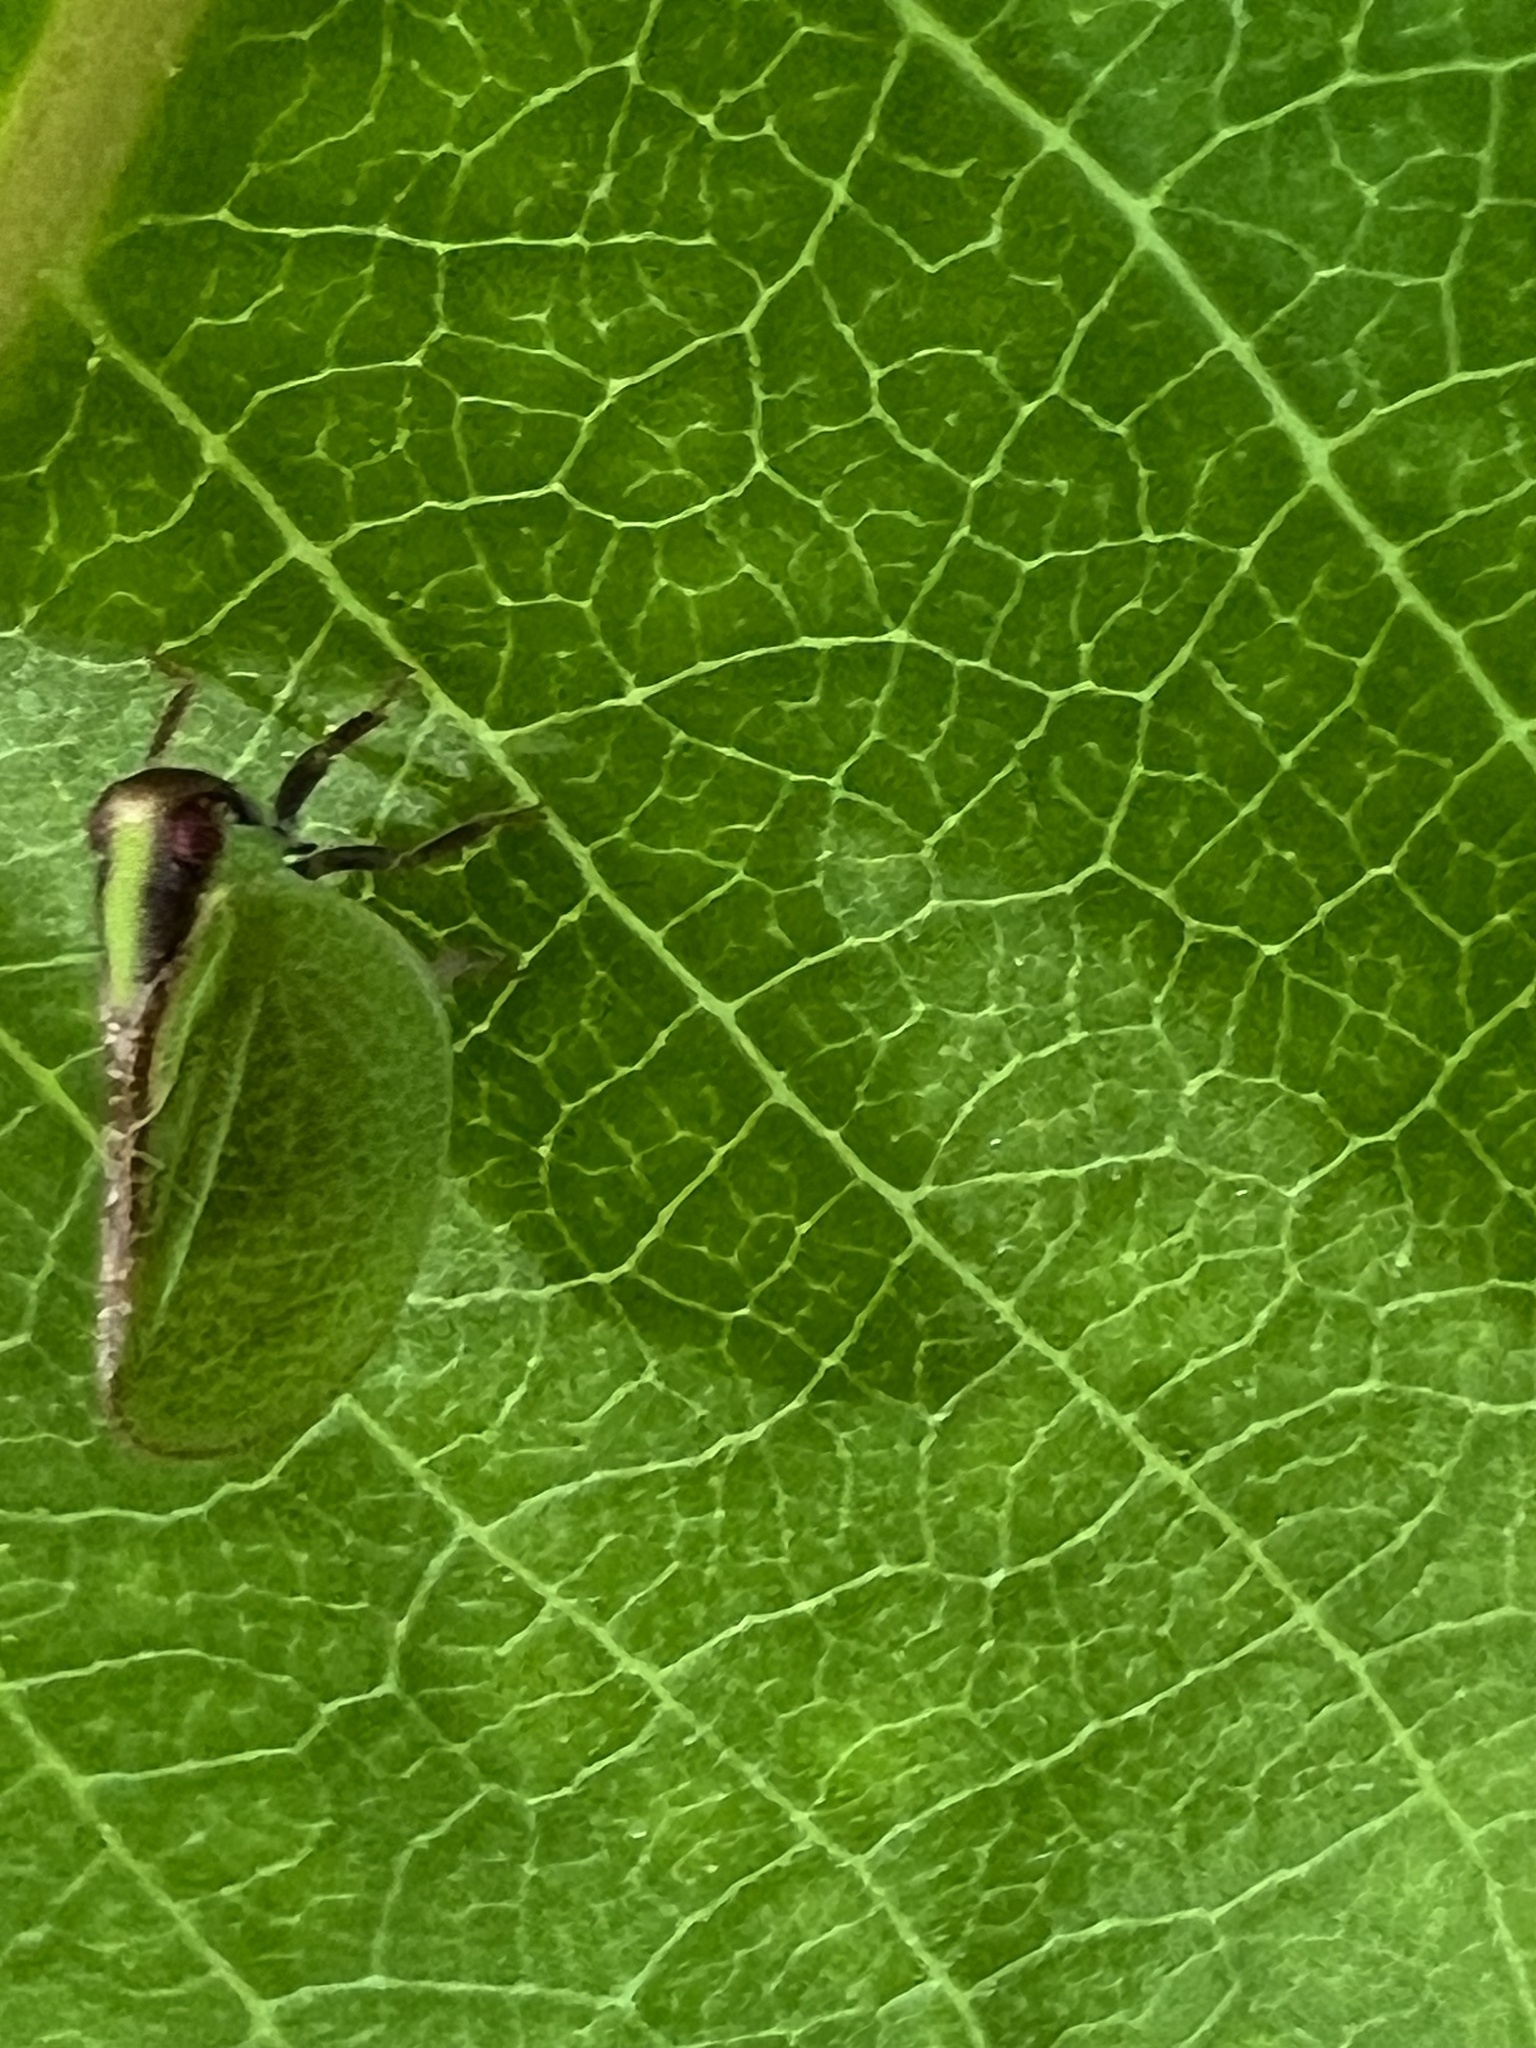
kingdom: Animalia
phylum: Arthropoda
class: Insecta
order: Hemiptera
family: Acanaloniidae
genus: Acanalonia
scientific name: Acanalonia bivittata
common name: Two-striped planthopper
